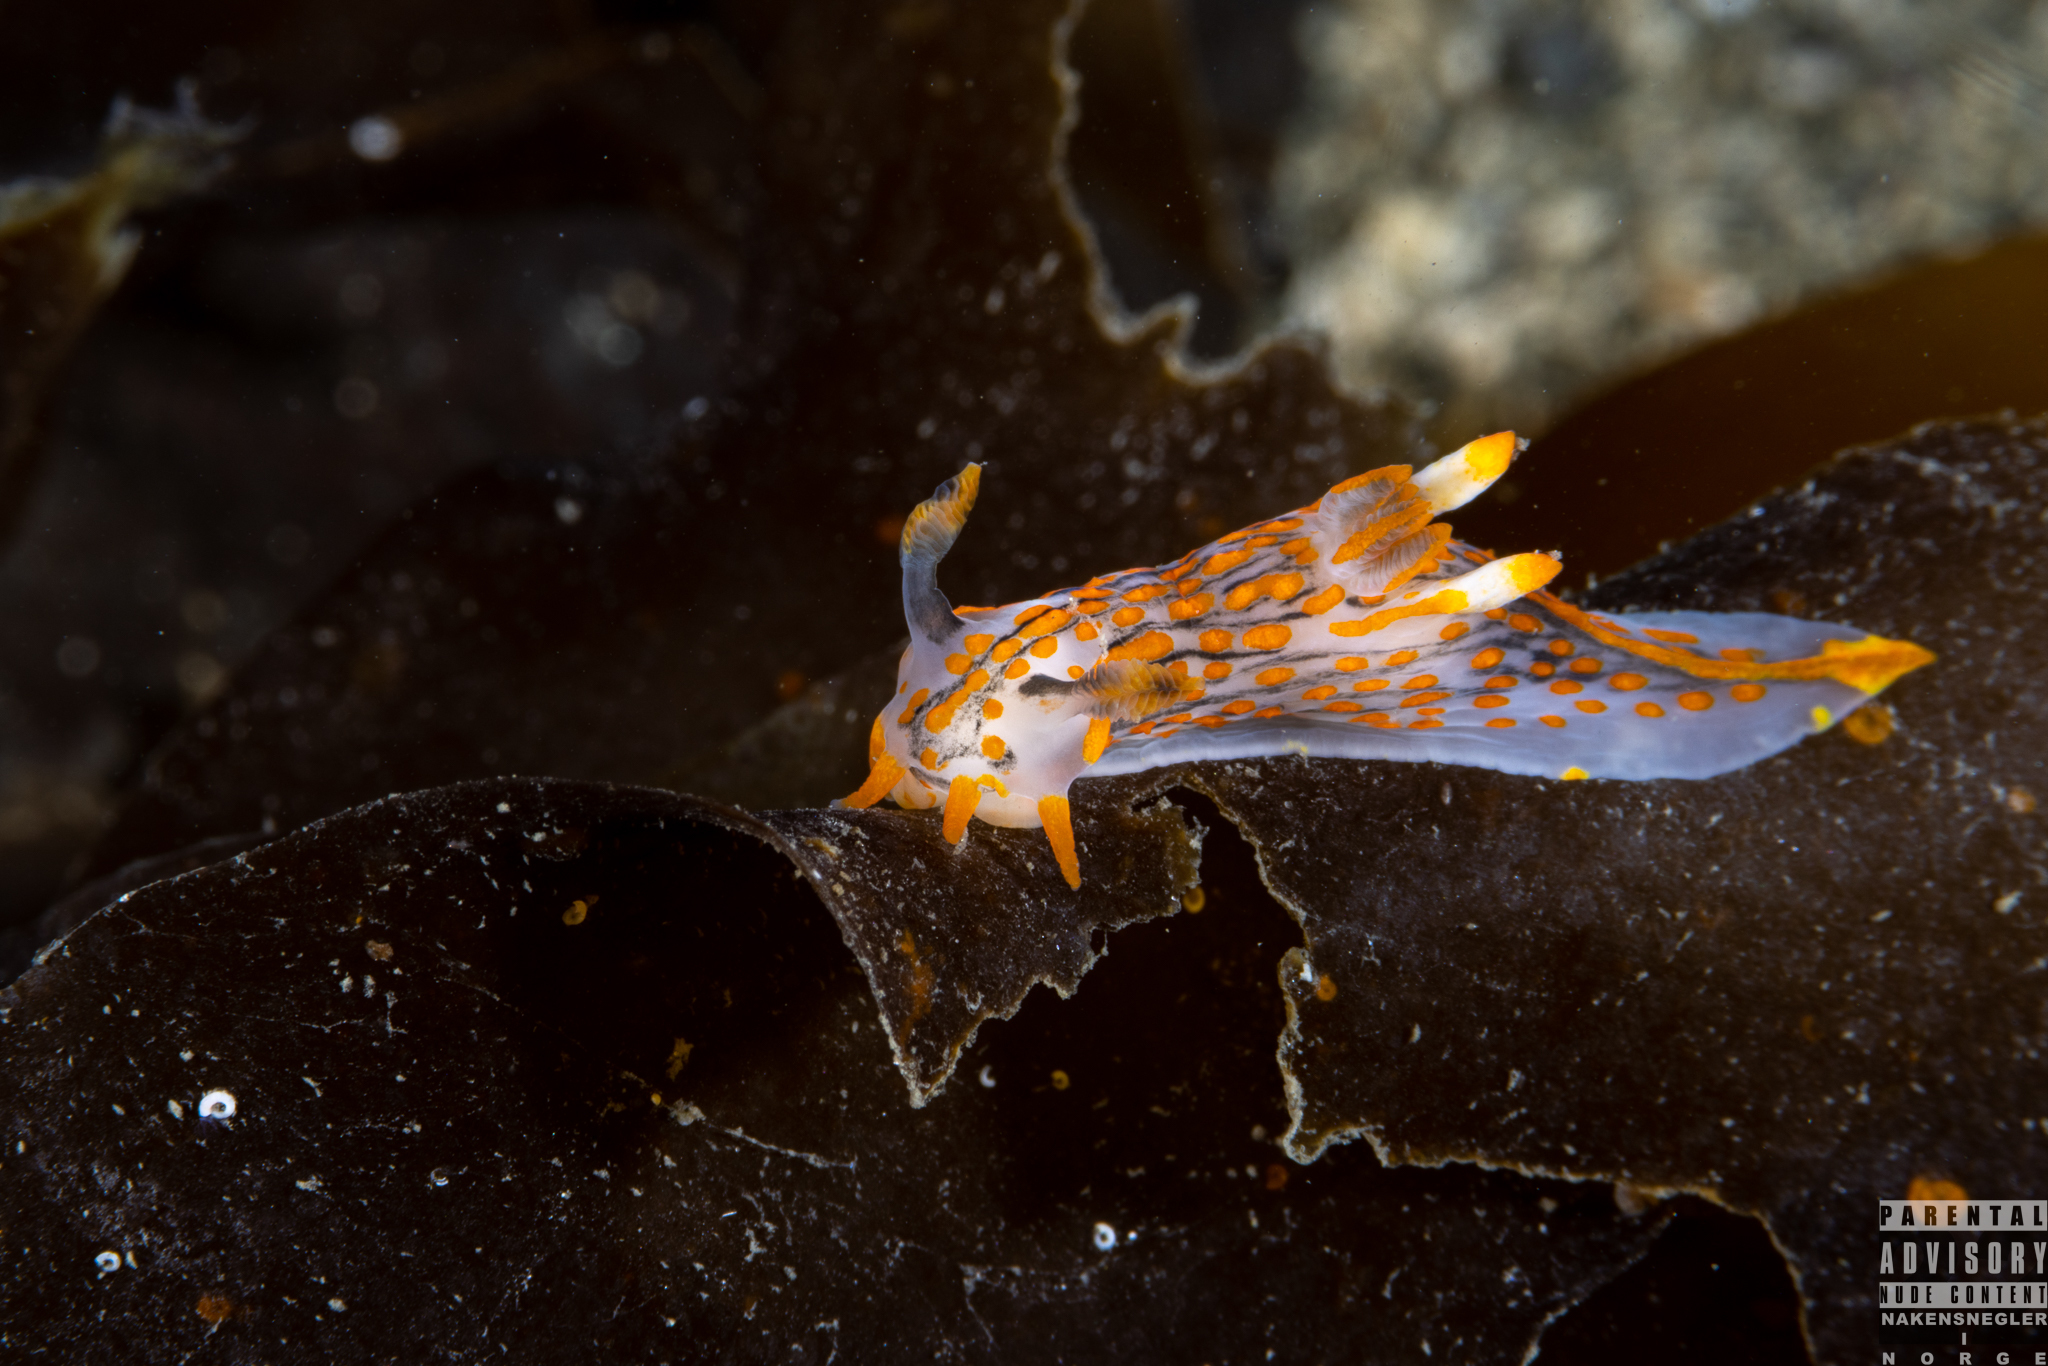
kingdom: Animalia
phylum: Mollusca
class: Gastropoda
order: Nudibranchia
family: Polyceridae
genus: Polycera
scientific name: Polycera quadrilineata
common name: Four-striped polycera
